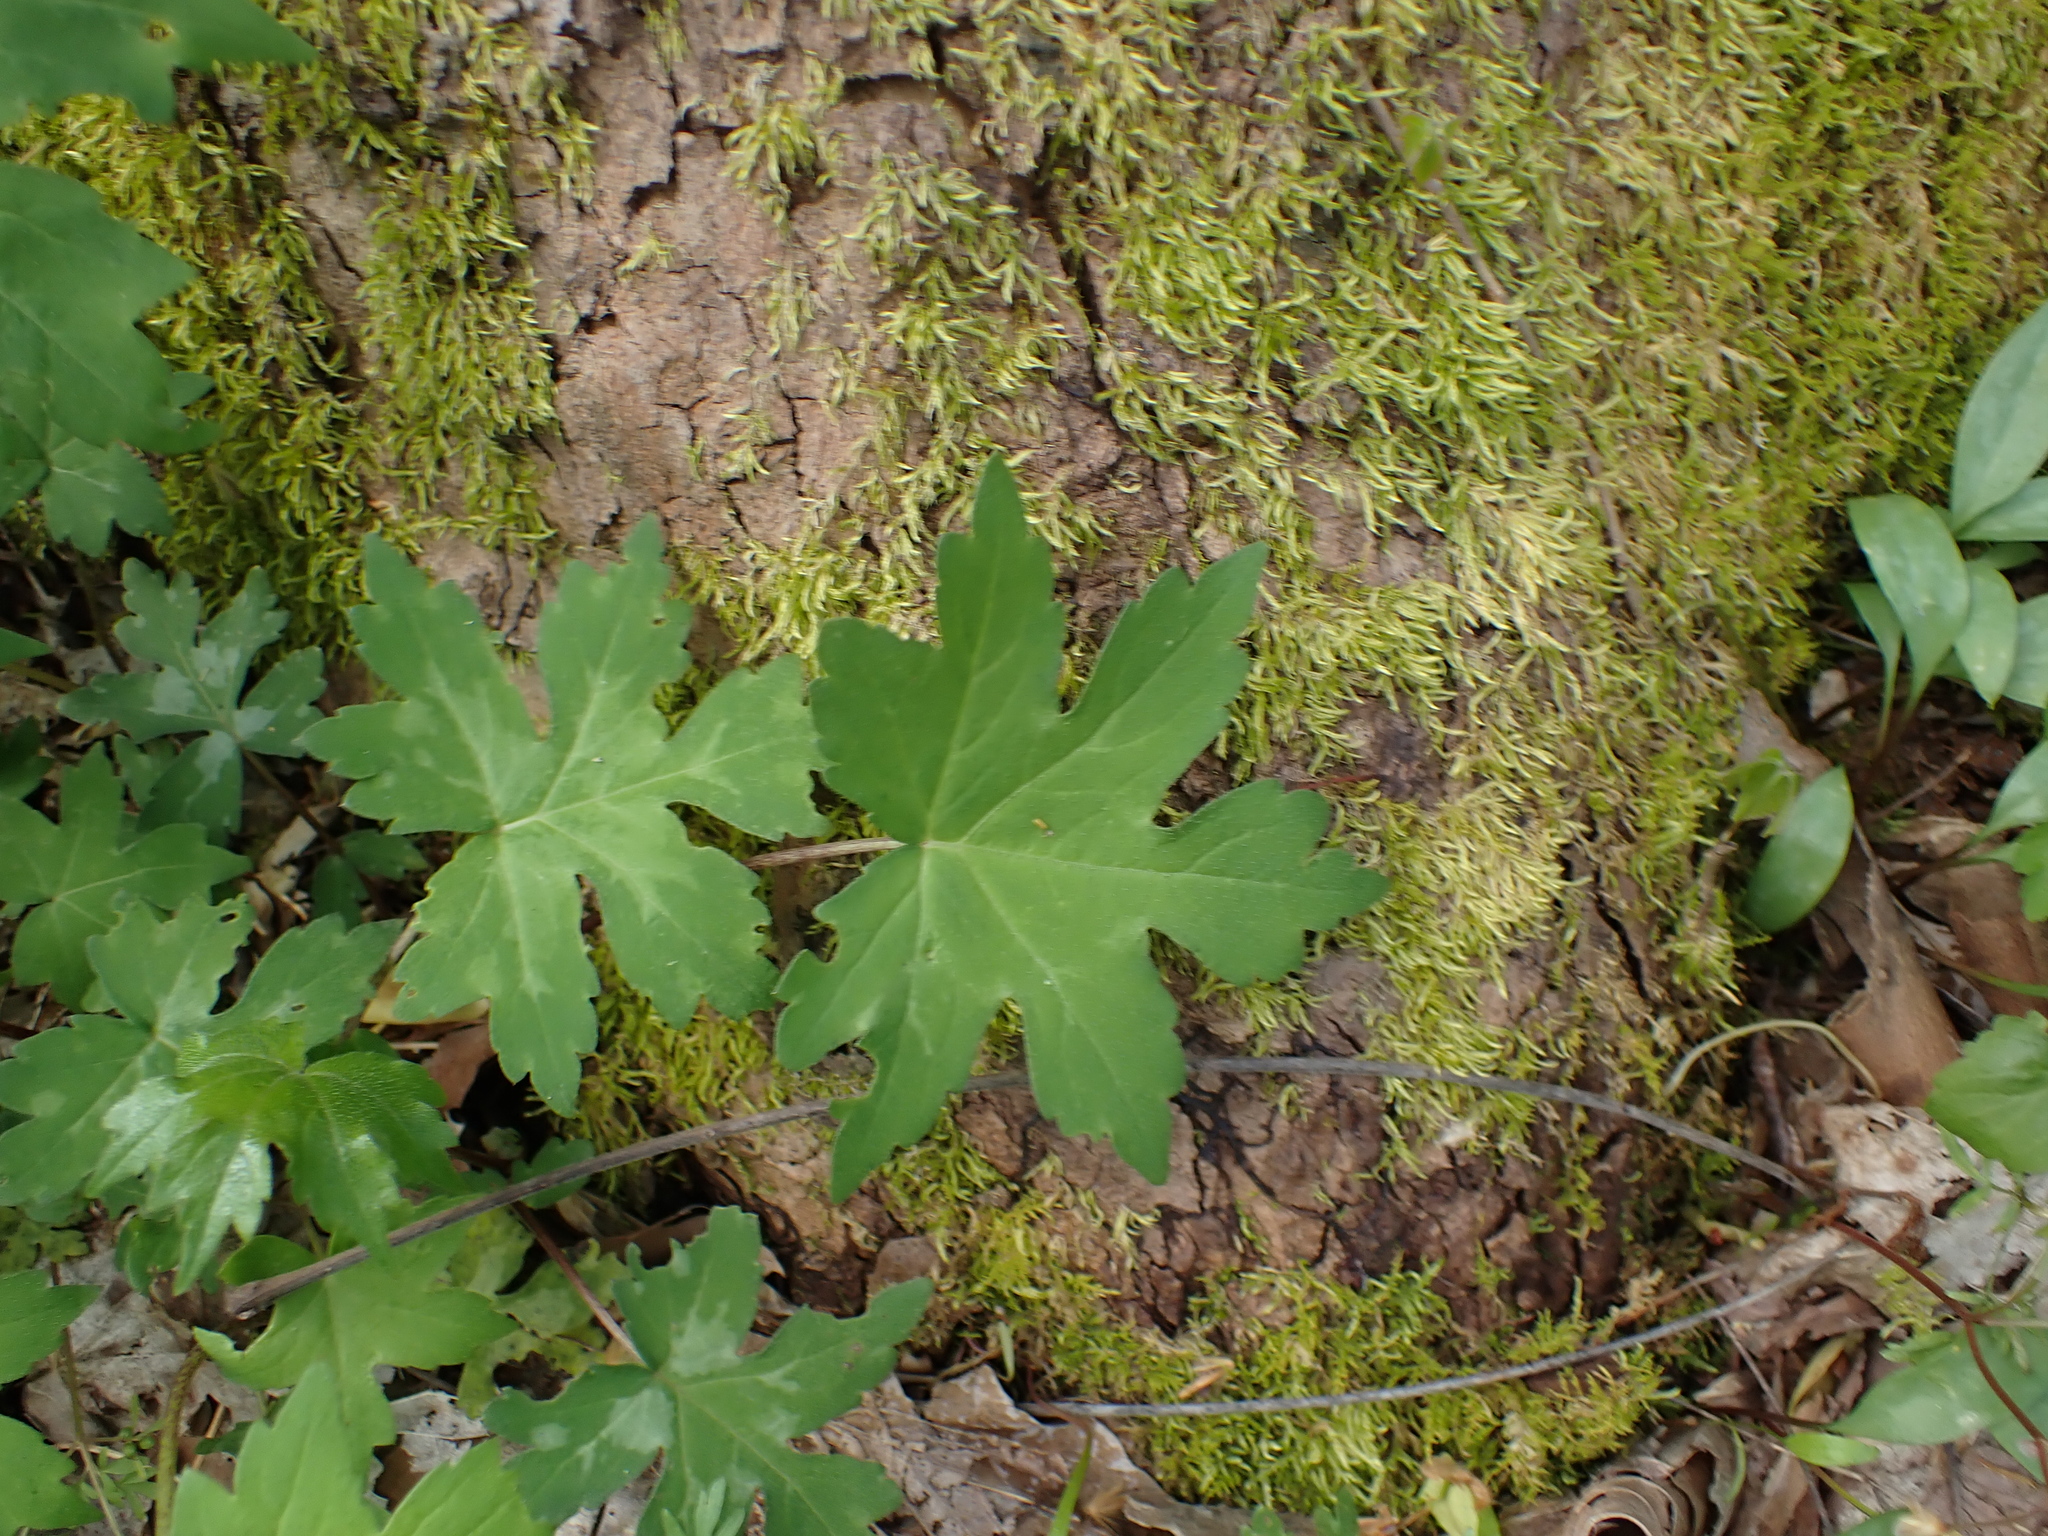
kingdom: Plantae
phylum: Tracheophyta
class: Magnoliopsida
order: Boraginales
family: Hydrophyllaceae
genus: Hydrophyllum
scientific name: Hydrophyllum canadense
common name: Canada waterleaf
